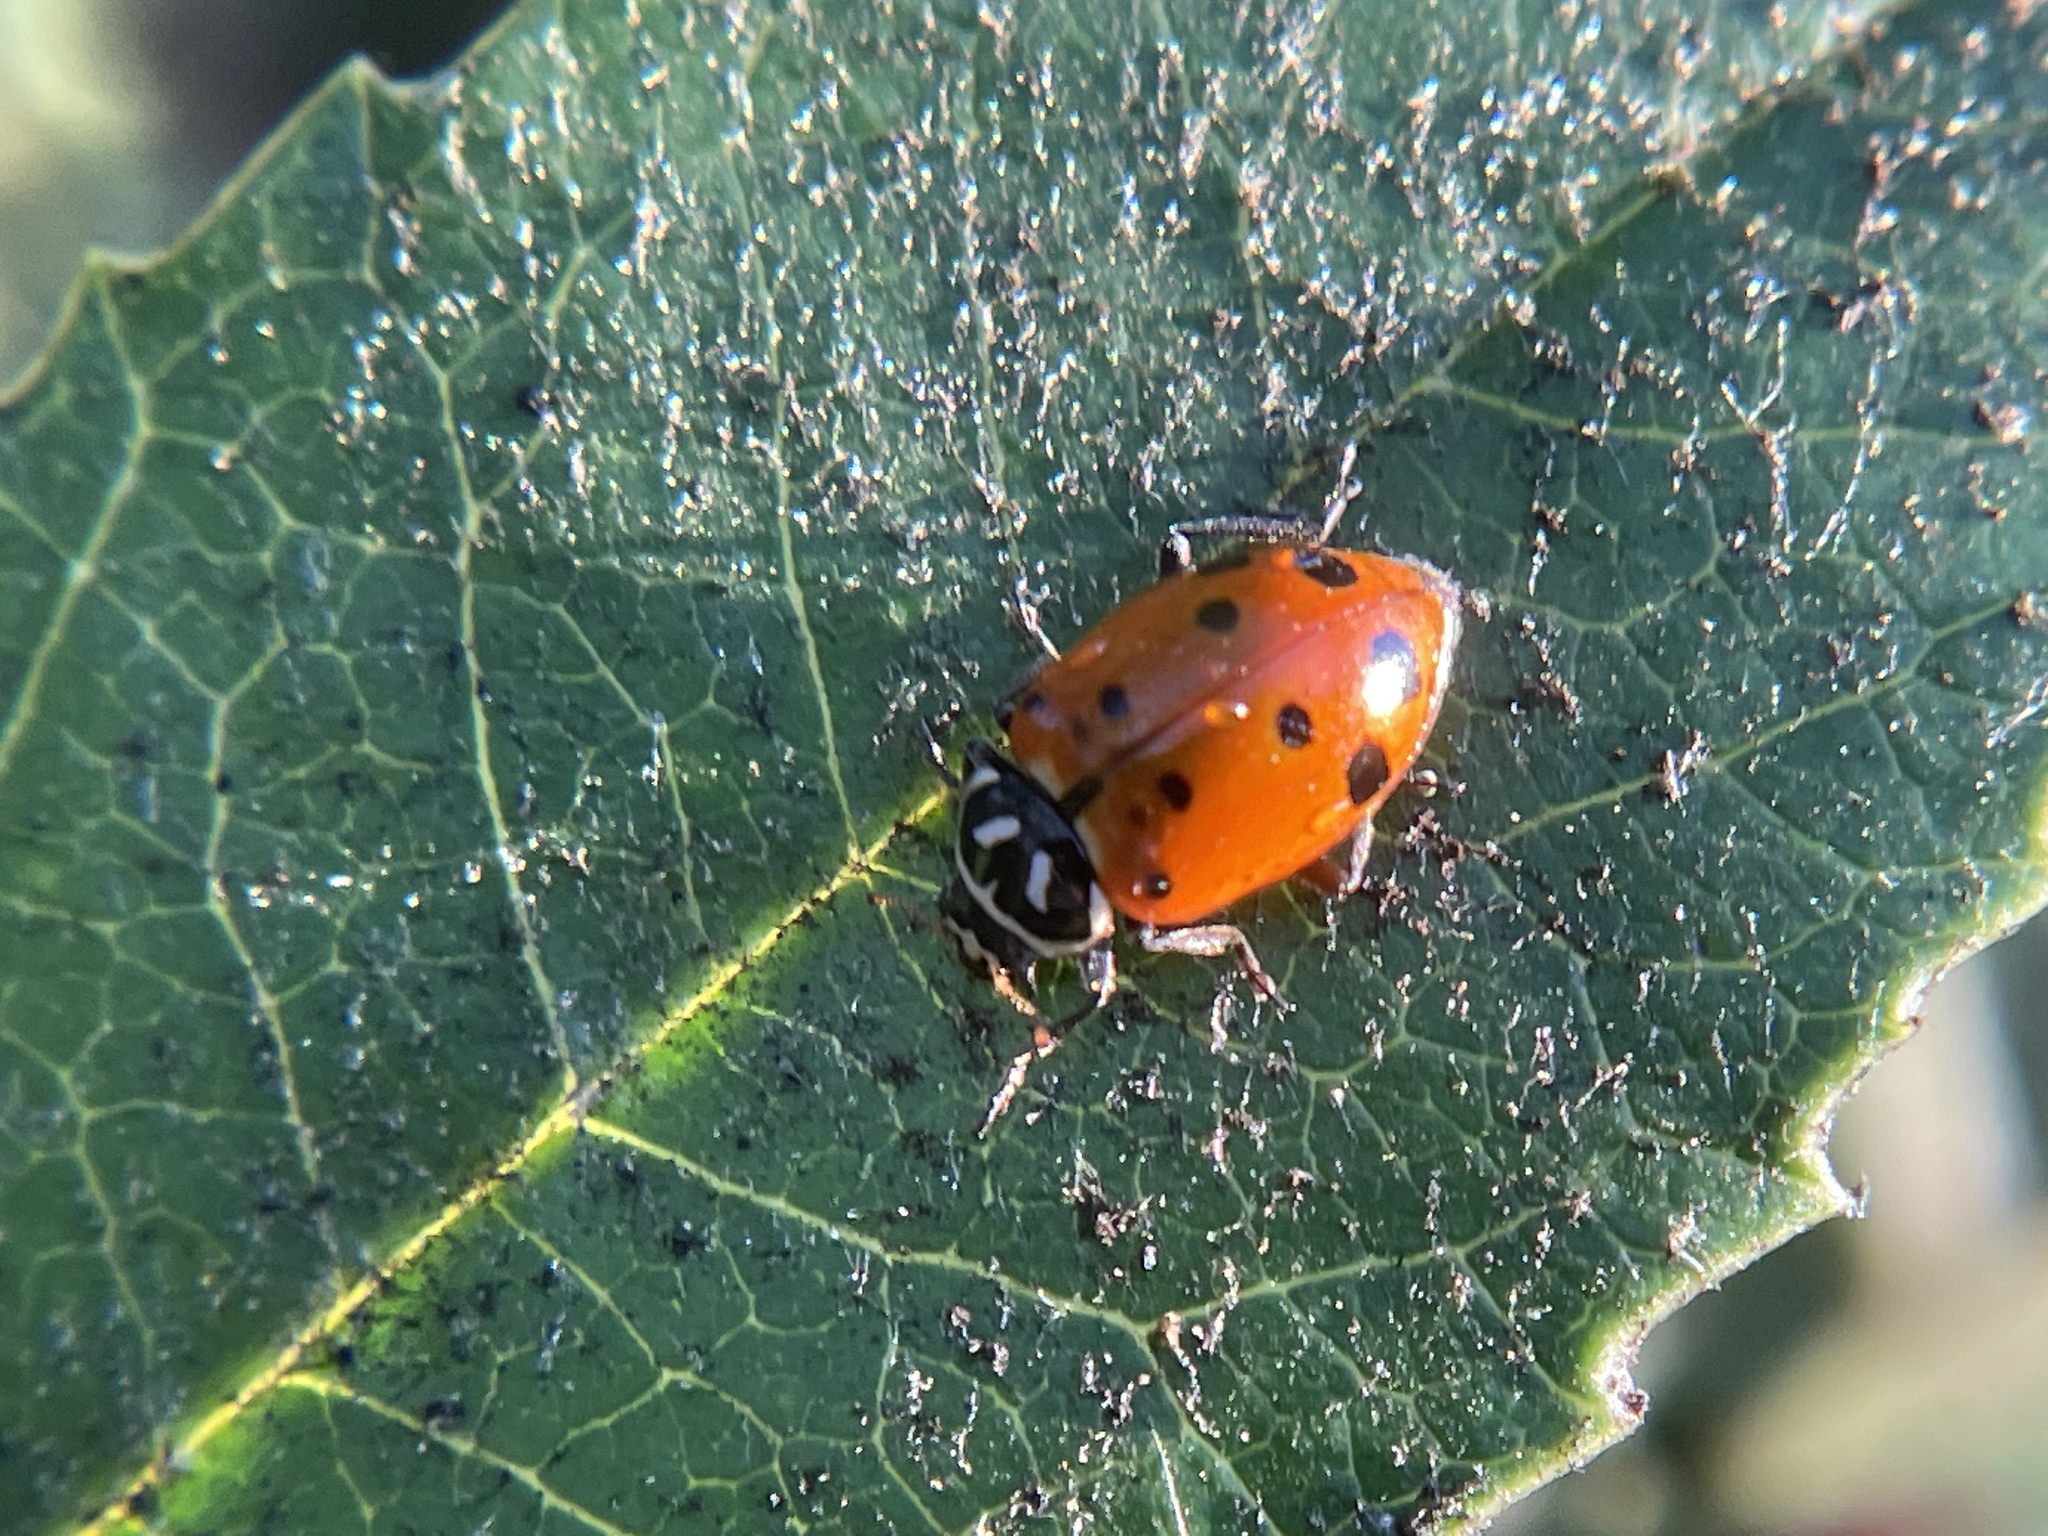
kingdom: Animalia
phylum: Arthropoda
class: Insecta
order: Coleoptera
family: Coccinellidae
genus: Hippodamia
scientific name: Hippodamia convergens
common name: Convergent lady beetle
